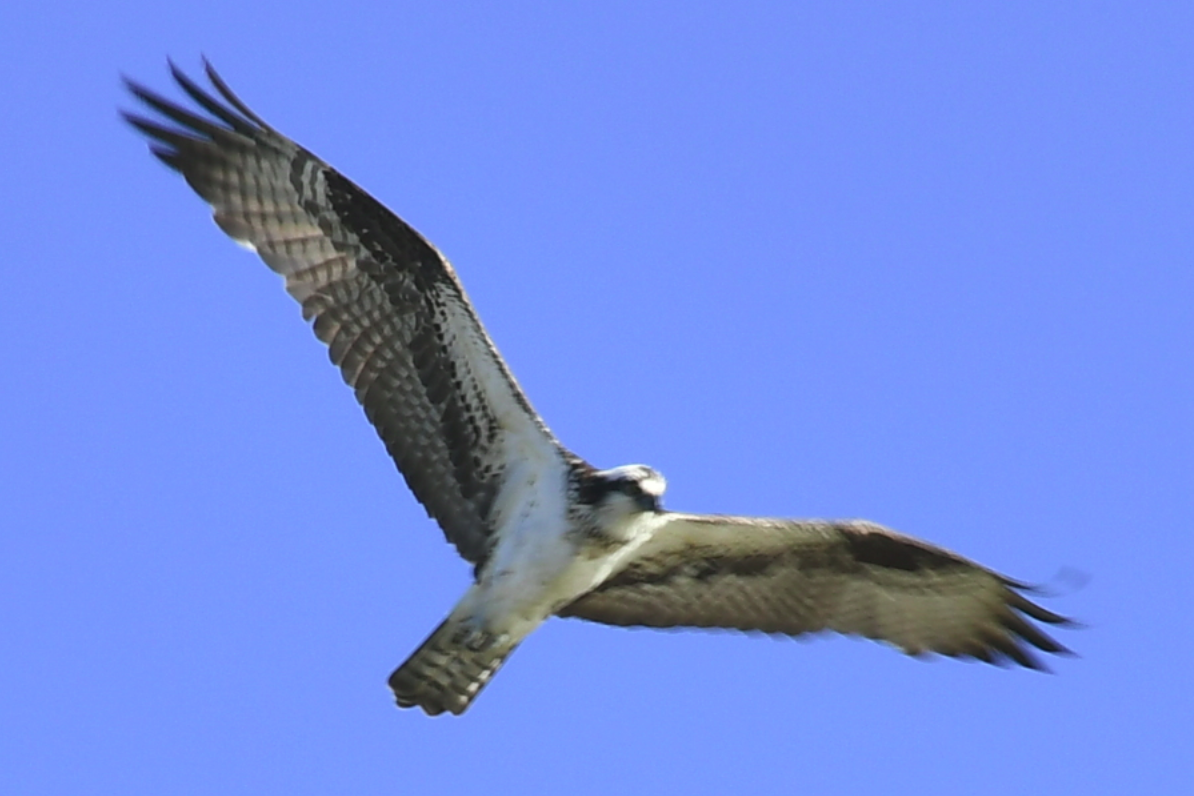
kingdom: Animalia
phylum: Chordata
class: Aves
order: Accipitriformes
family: Pandionidae
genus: Pandion
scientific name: Pandion haliaetus
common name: Osprey
